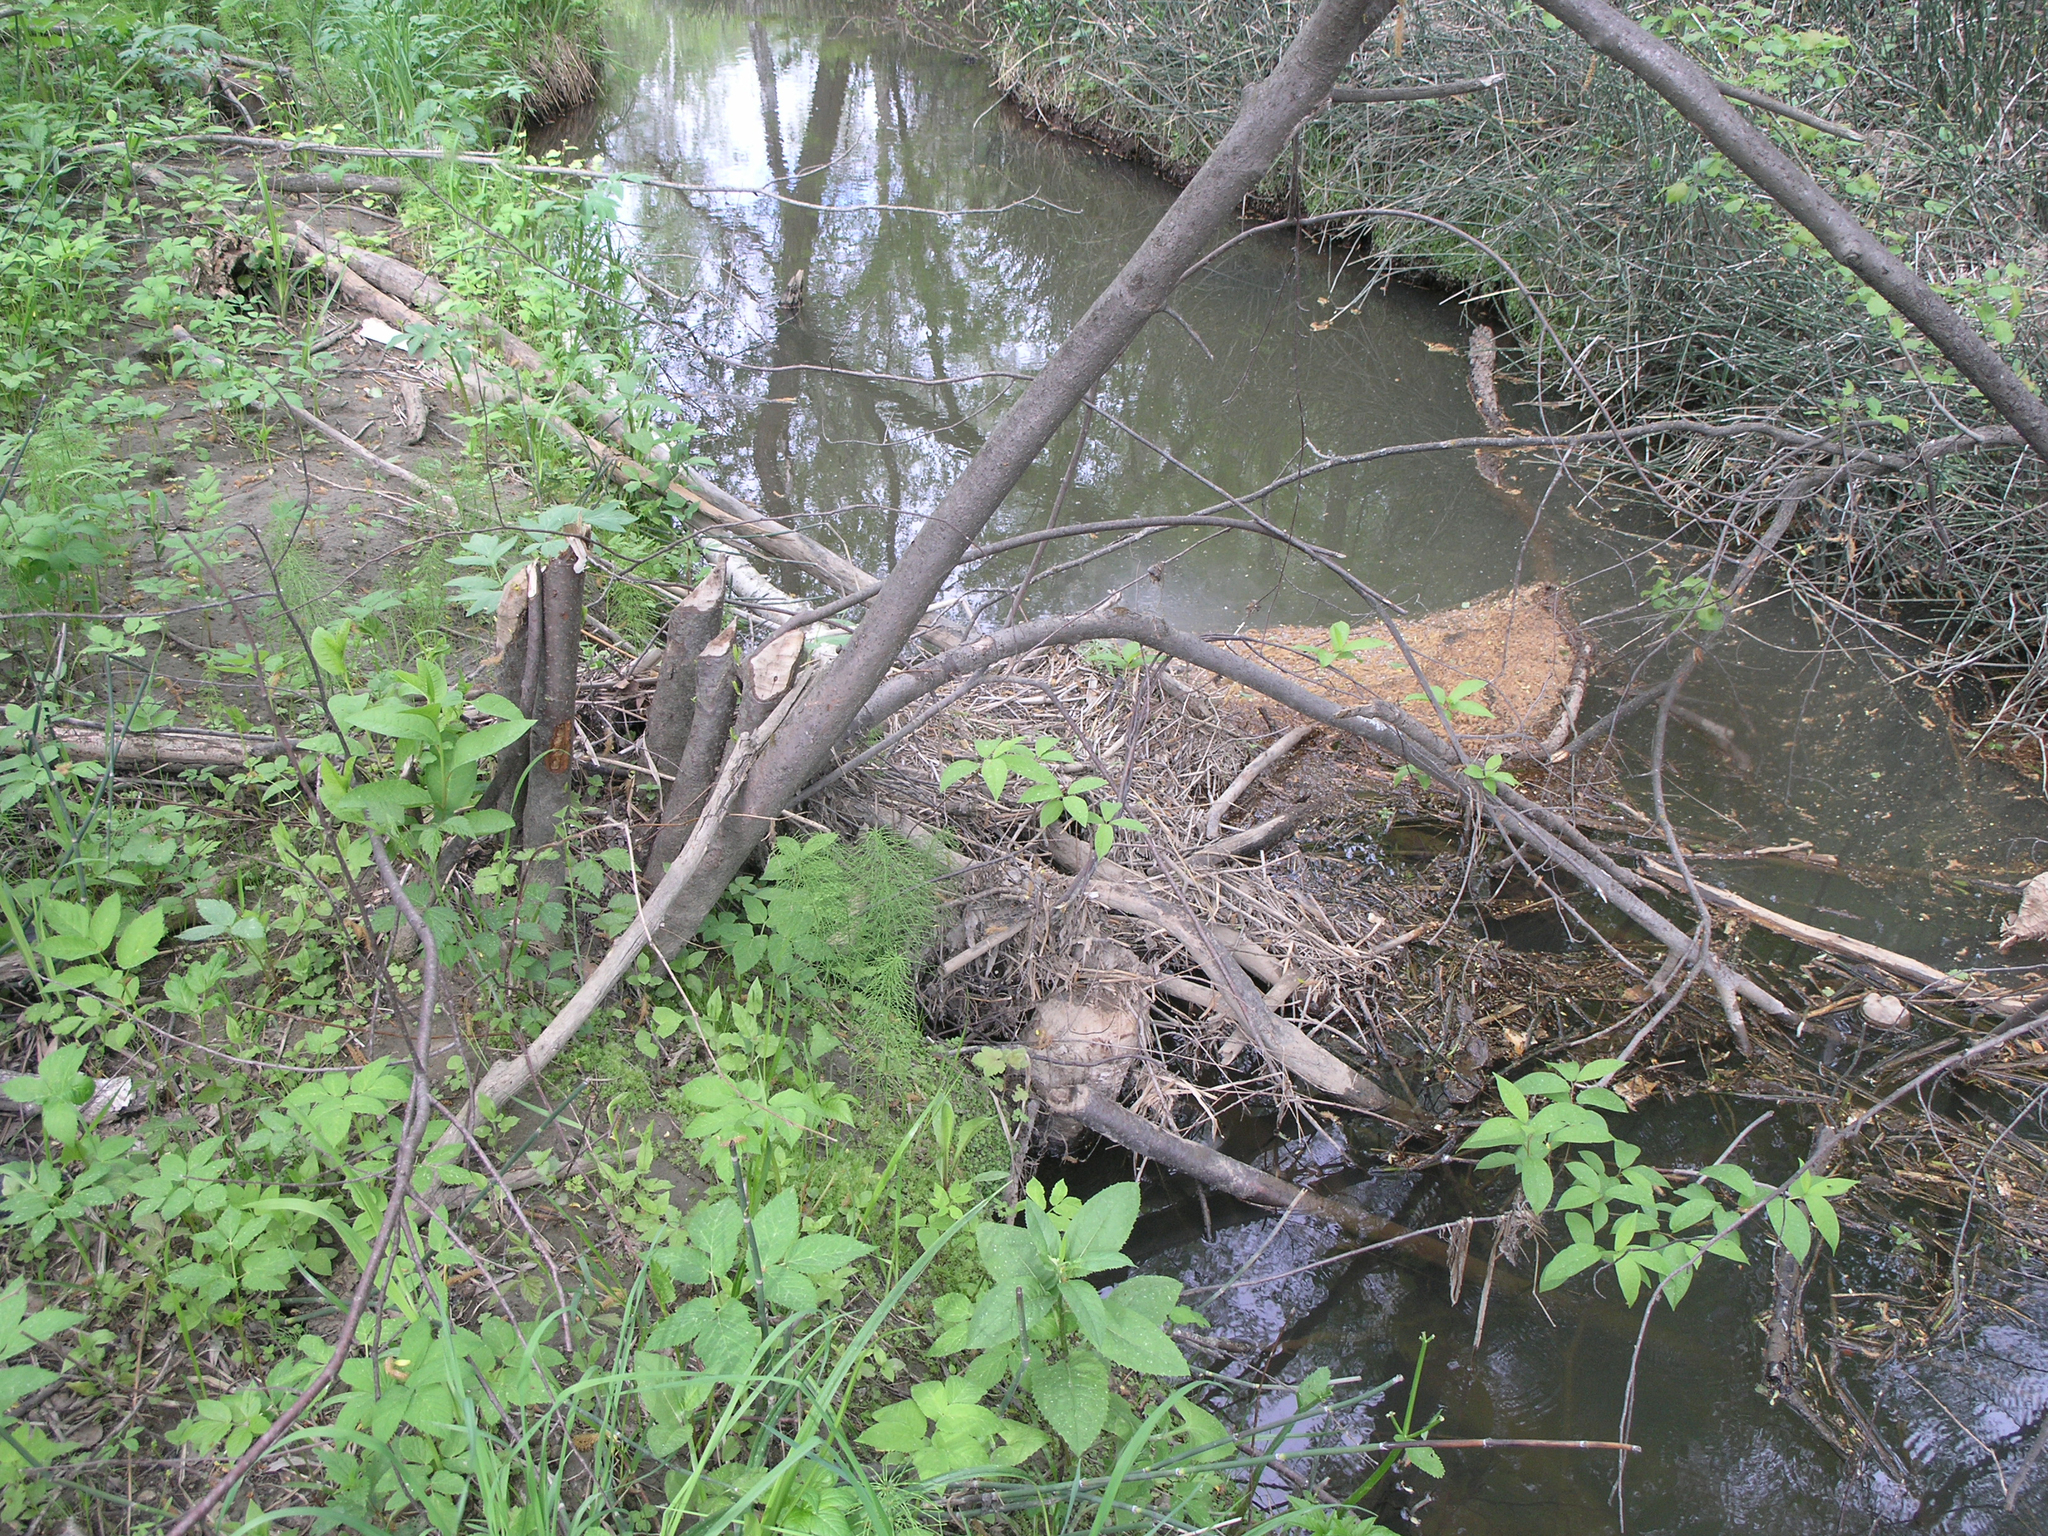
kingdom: Animalia
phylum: Chordata
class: Mammalia
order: Rodentia
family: Castoridae
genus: Castor
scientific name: Castor fiber
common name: Eurasian beaver
